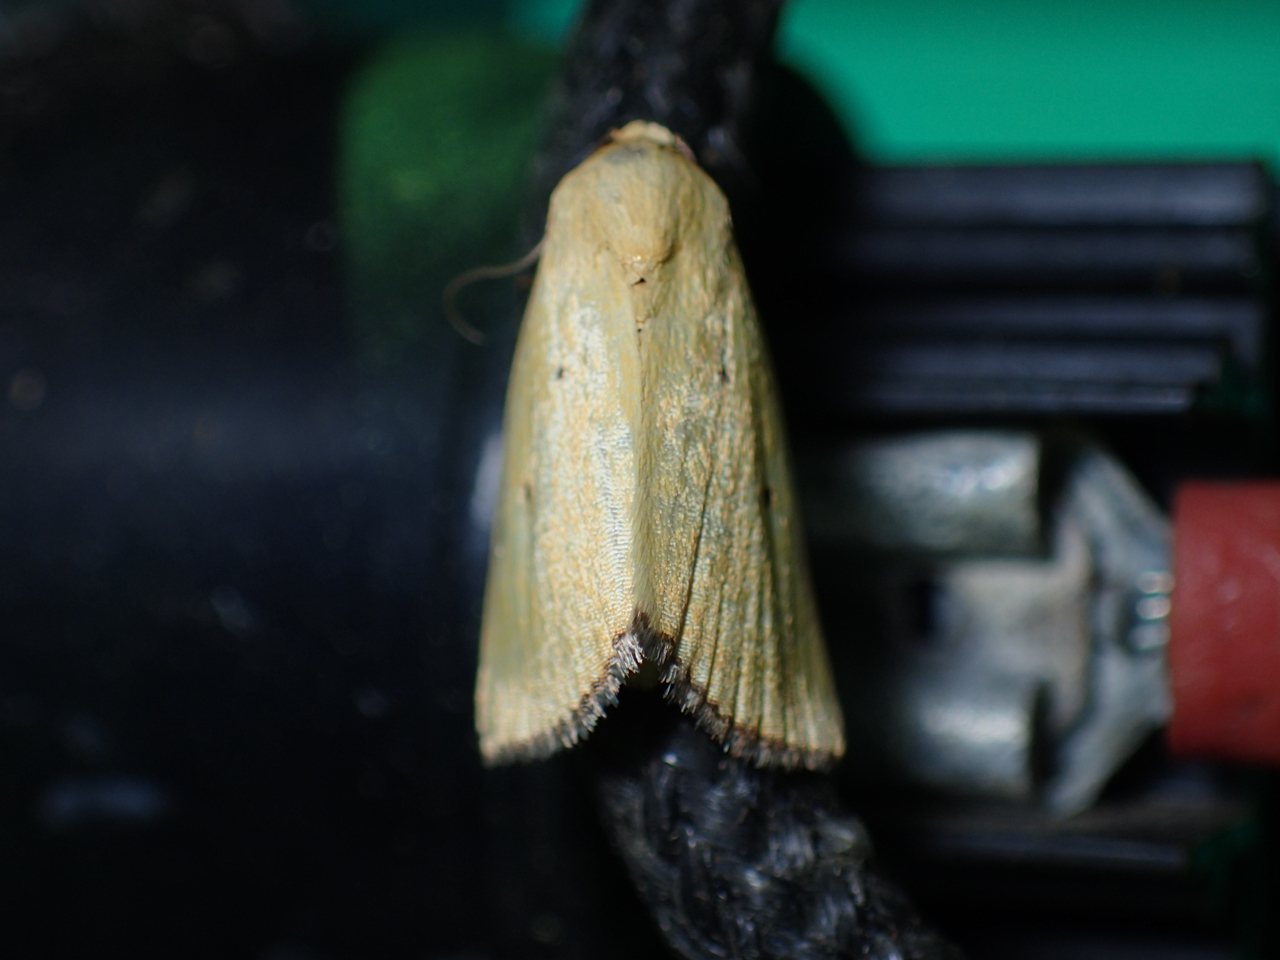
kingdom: Animalia
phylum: Arthropoda
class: Insecta
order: Lepidoptera
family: Noctuidae
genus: Marimatha
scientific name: Marimatha nigrofimbria
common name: Black-bordered lemon moth
